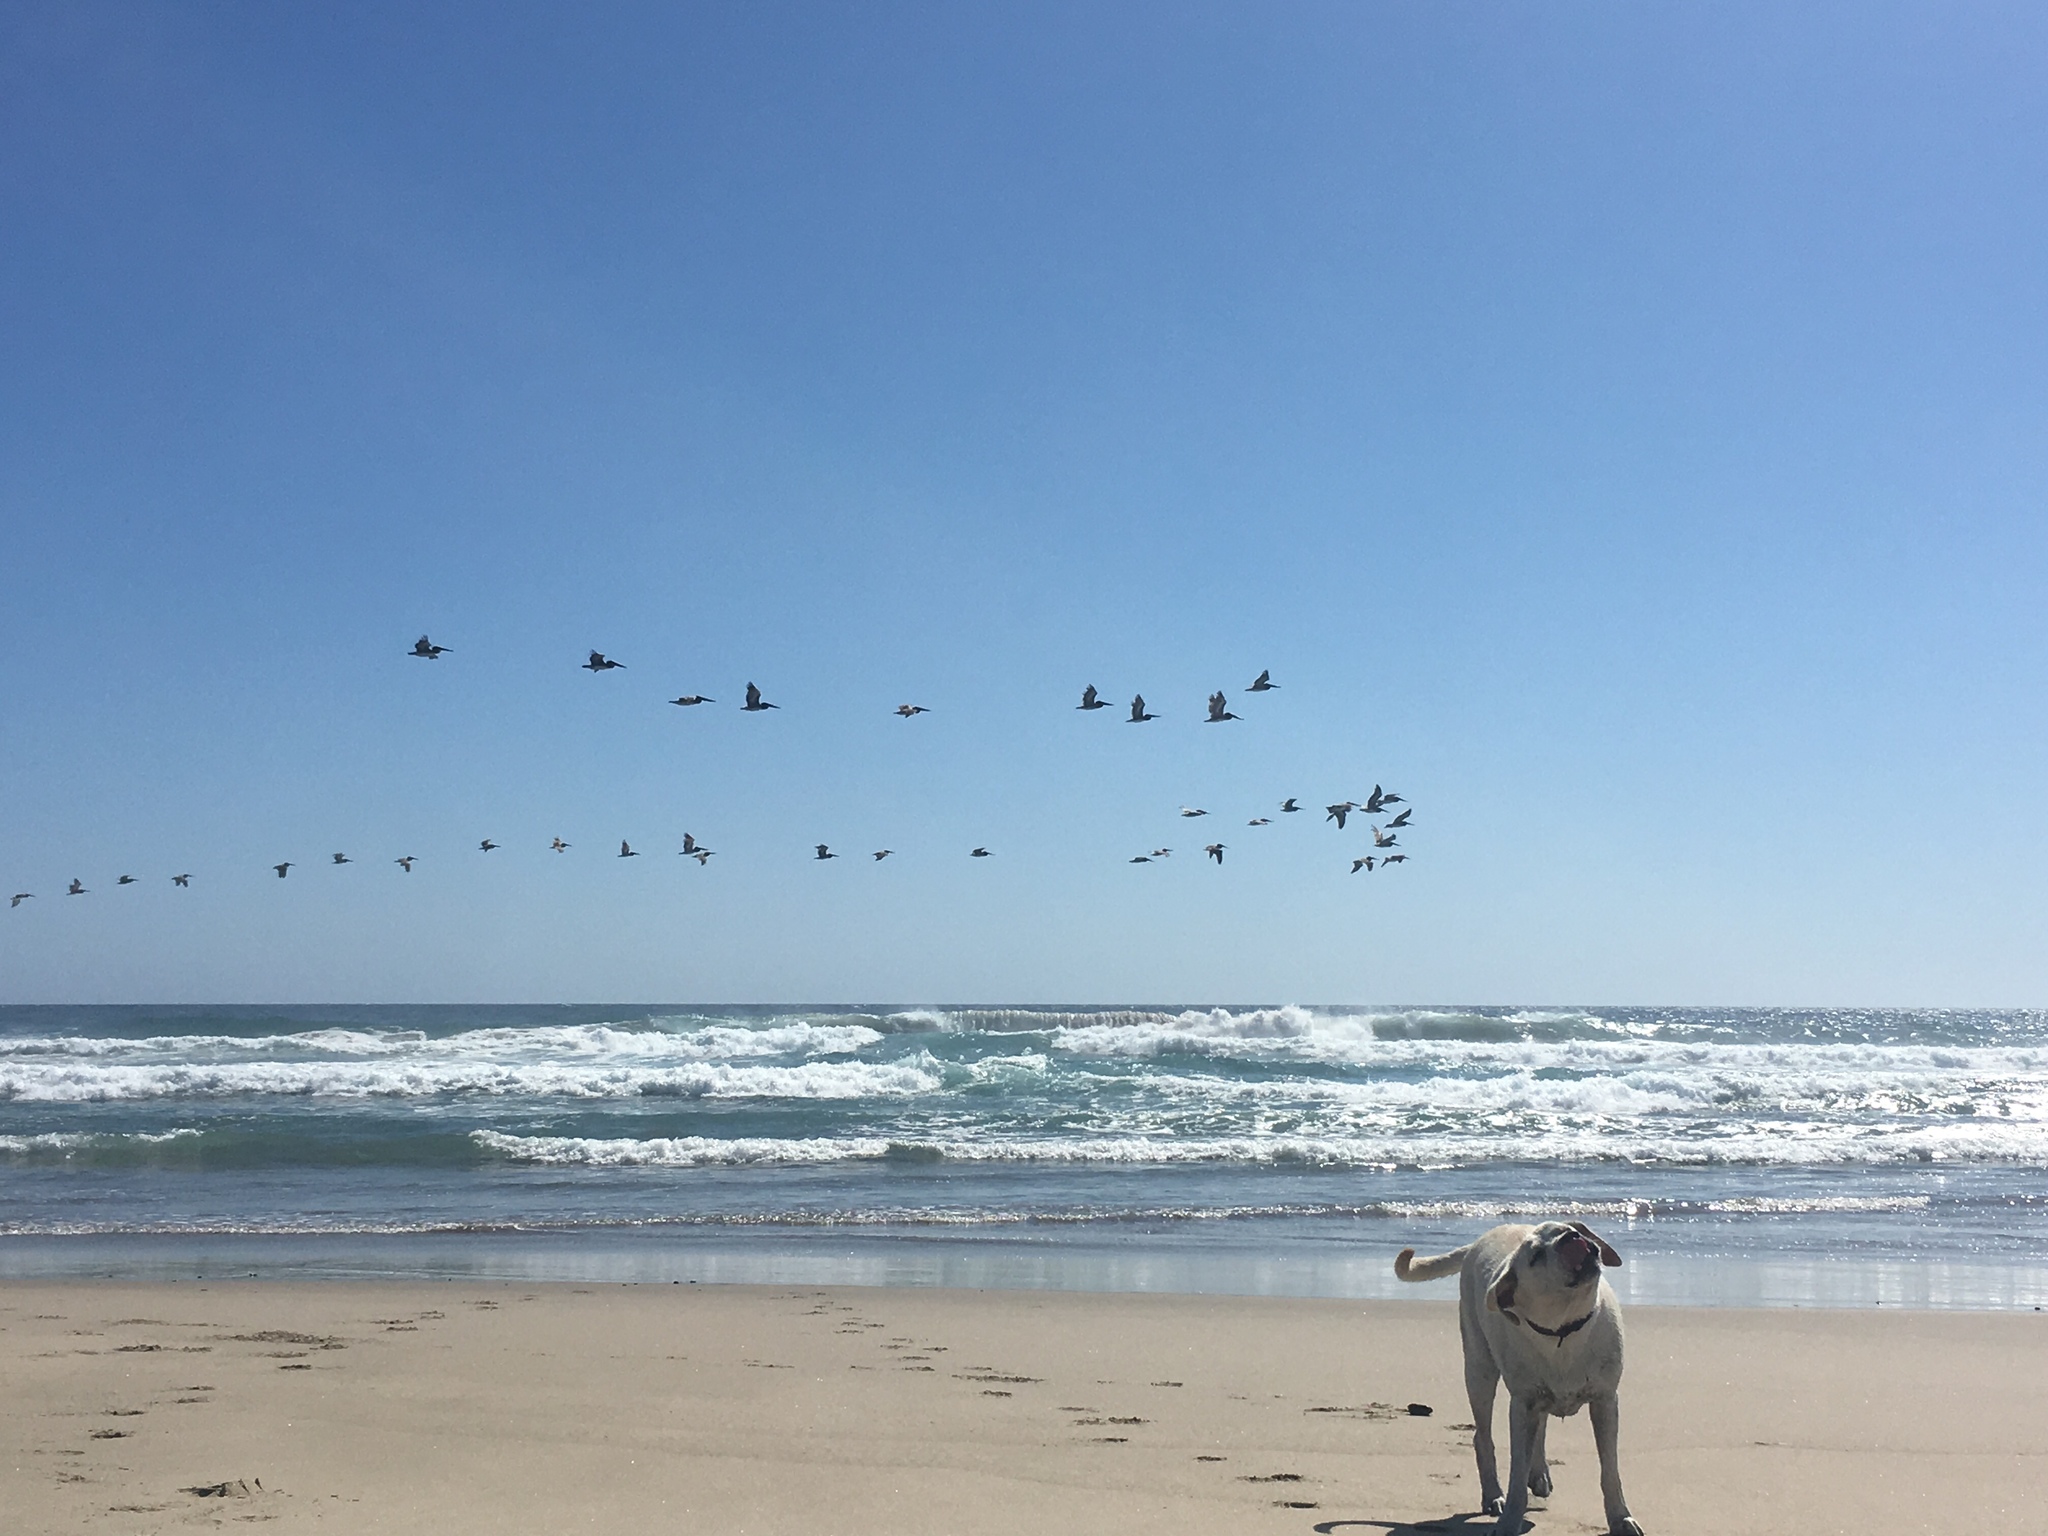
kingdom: Animalia
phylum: Chordata
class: Aves
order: Pelecaniformes
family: Pelecanidae
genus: Pelecanus
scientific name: Pelecanus occidentalis
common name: Brown pelican
